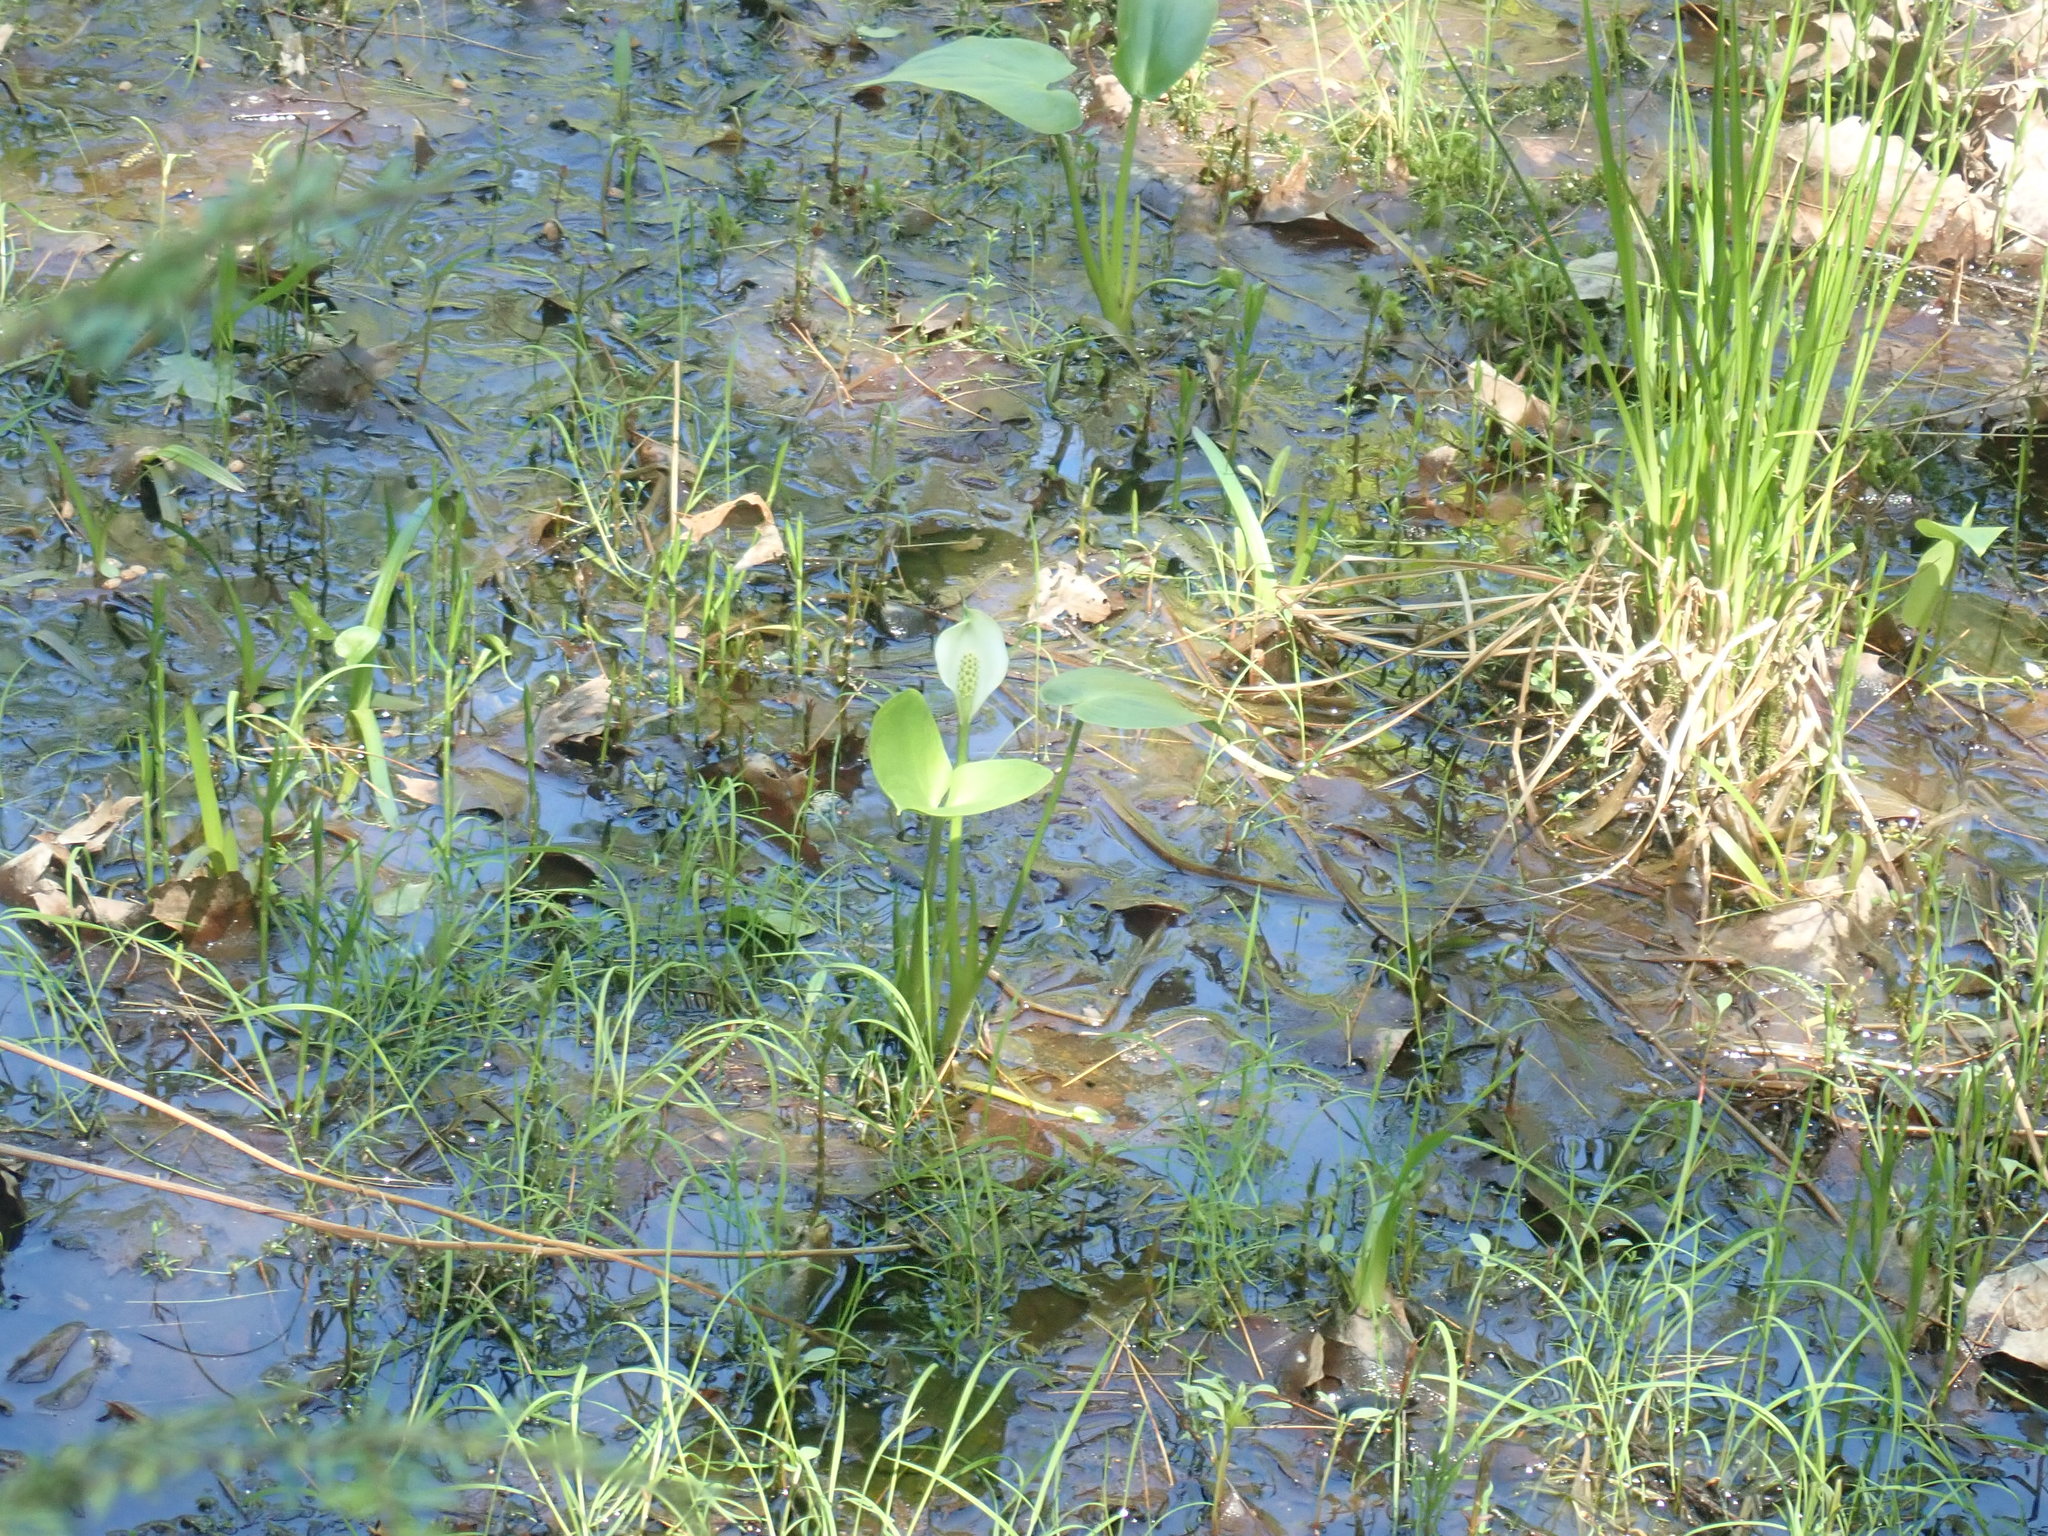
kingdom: Plantae
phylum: Tracheophyta
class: Liliopsida
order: Alismatales
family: Araceae
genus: Calla
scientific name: Calla palustris
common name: Bog arum
